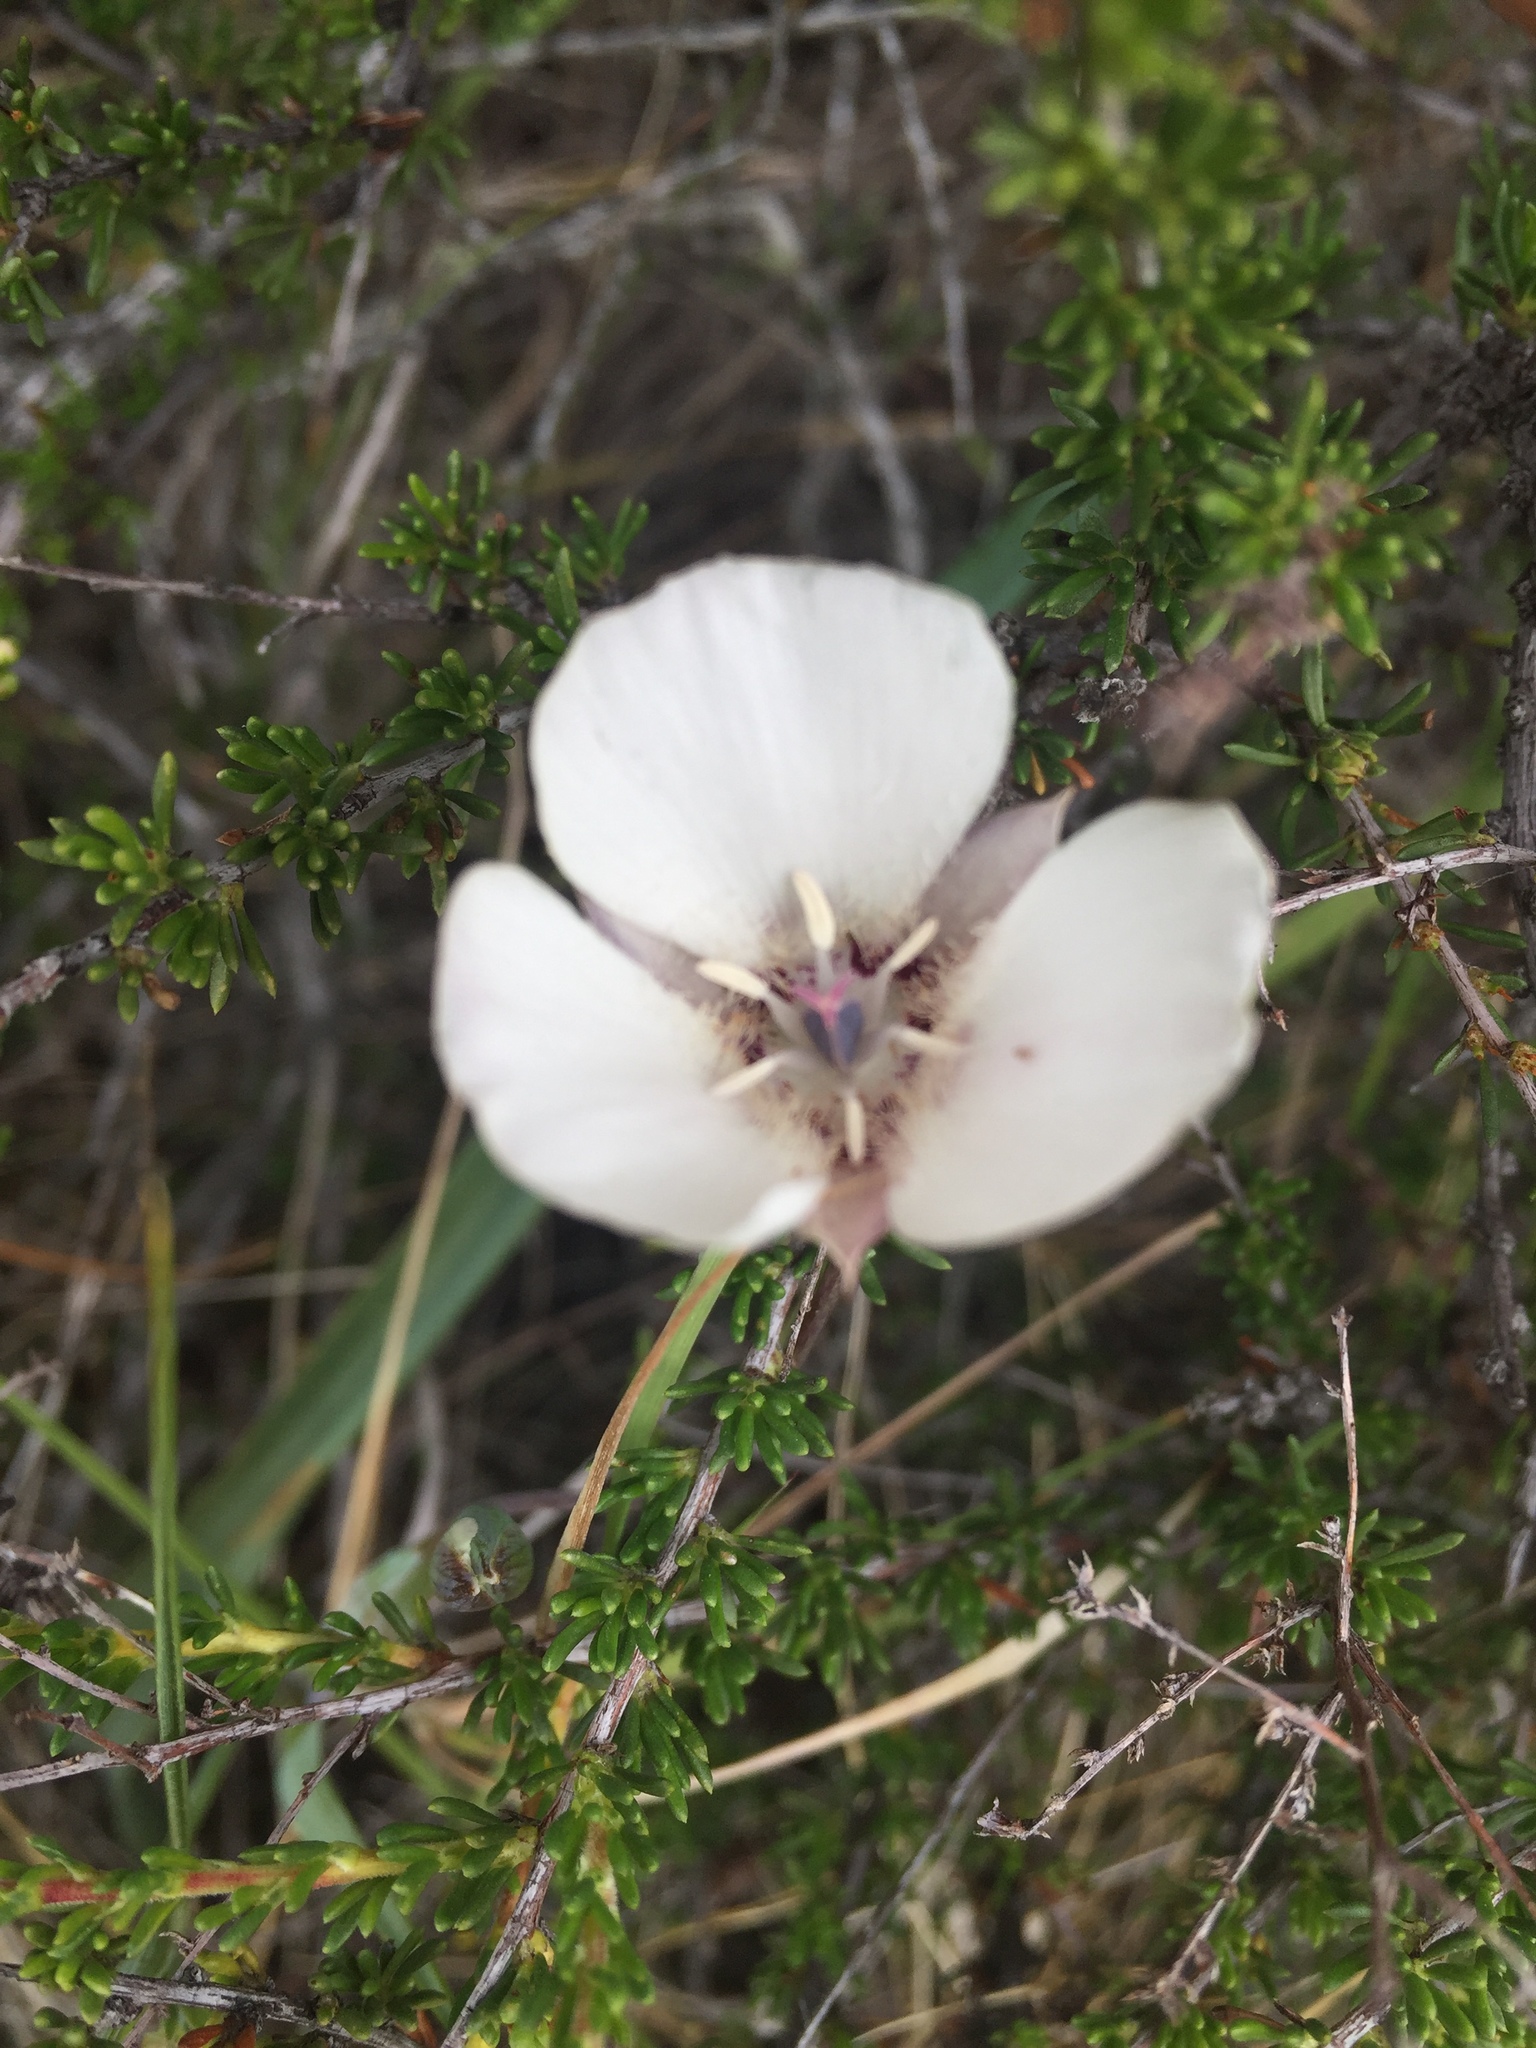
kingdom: Plantae
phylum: Tracheophyta
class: Liliopsida
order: Liliales
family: Liliaceae
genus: Calochortus
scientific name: Calochortus umbellatus
